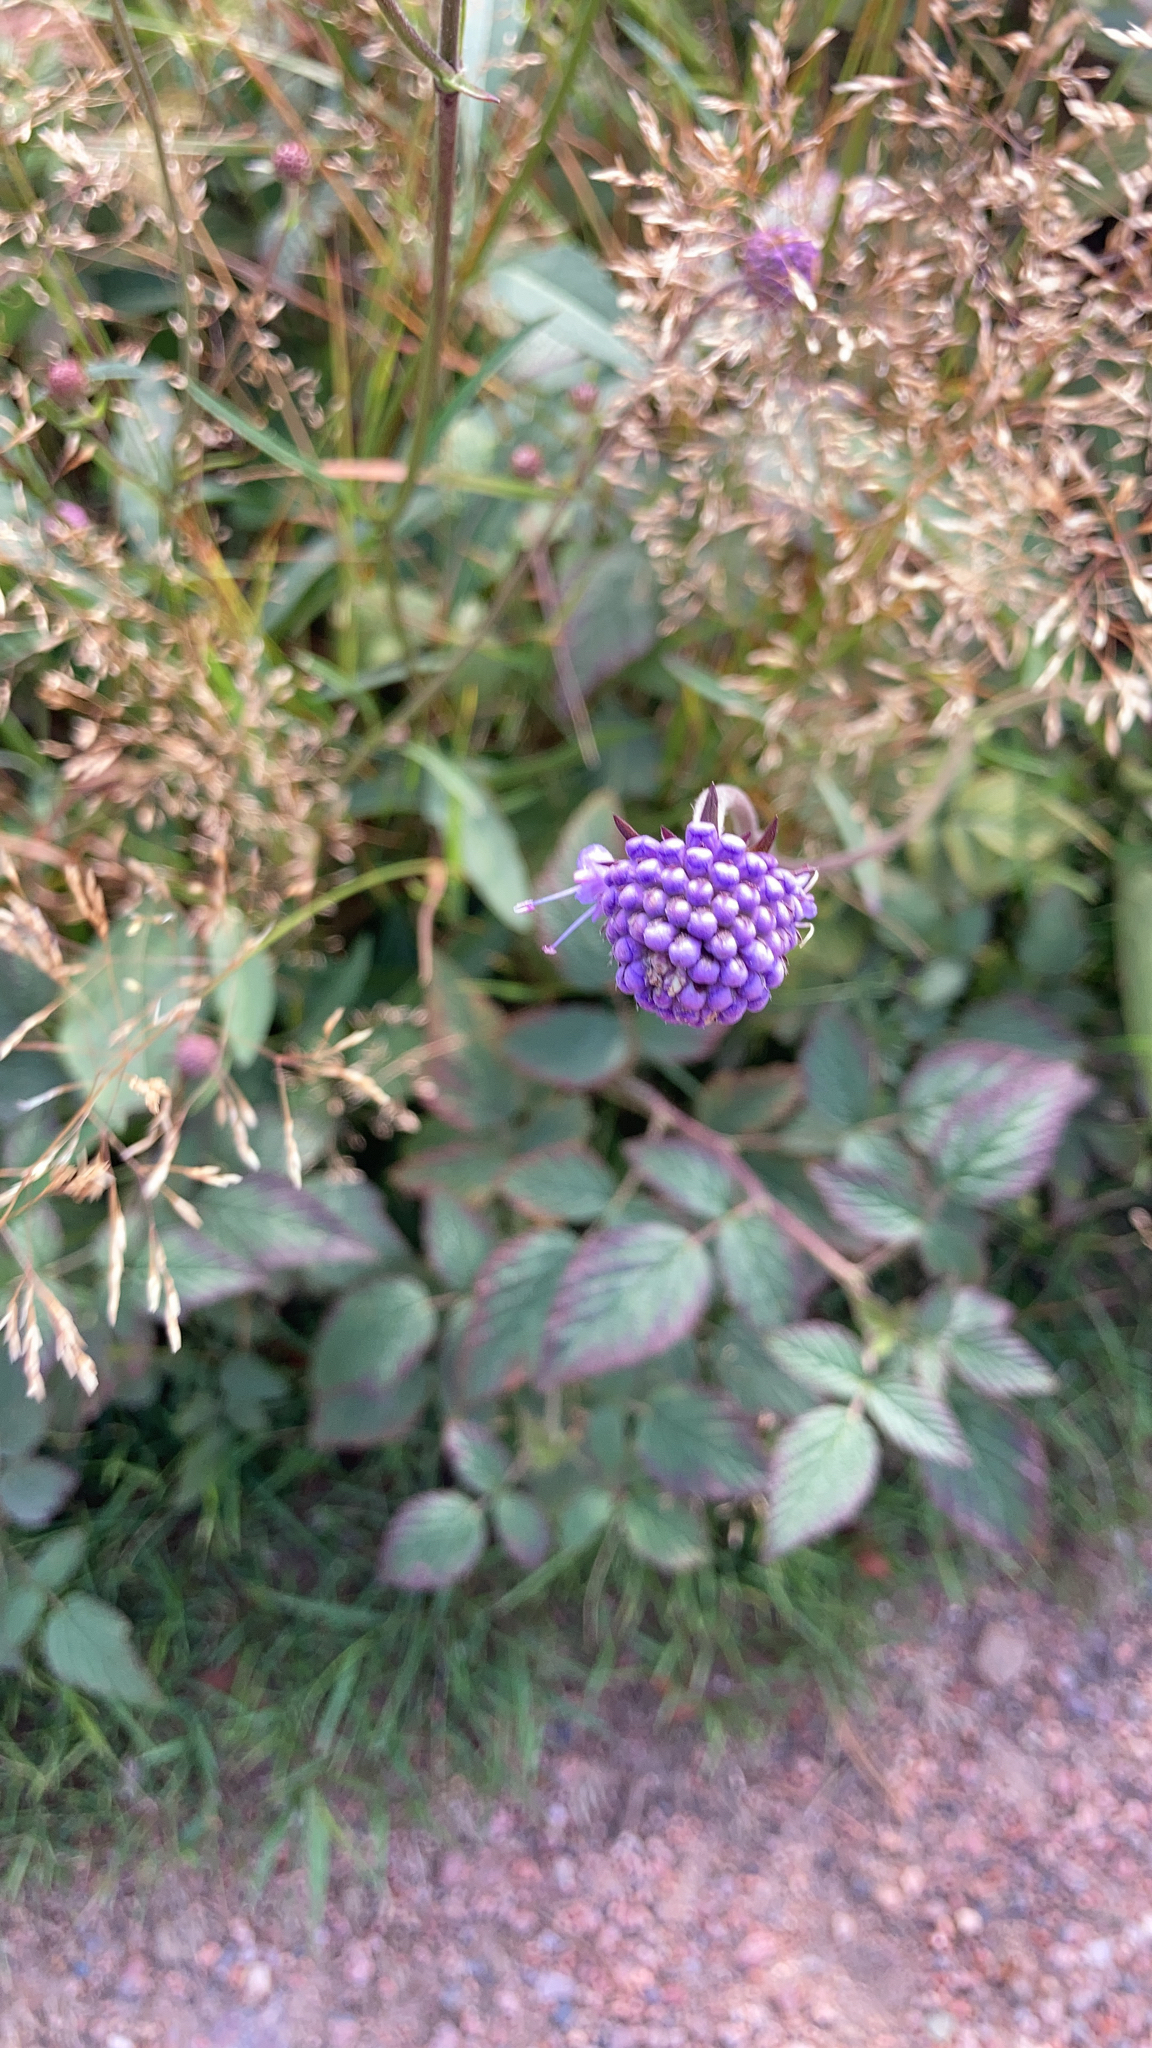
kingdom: Plantae
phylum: Tracheophyta
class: Magnoliopsida
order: Dipsacales
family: Caprifoliaceae
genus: Succisa
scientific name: Succisa pratensis
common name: Devil's-bit
